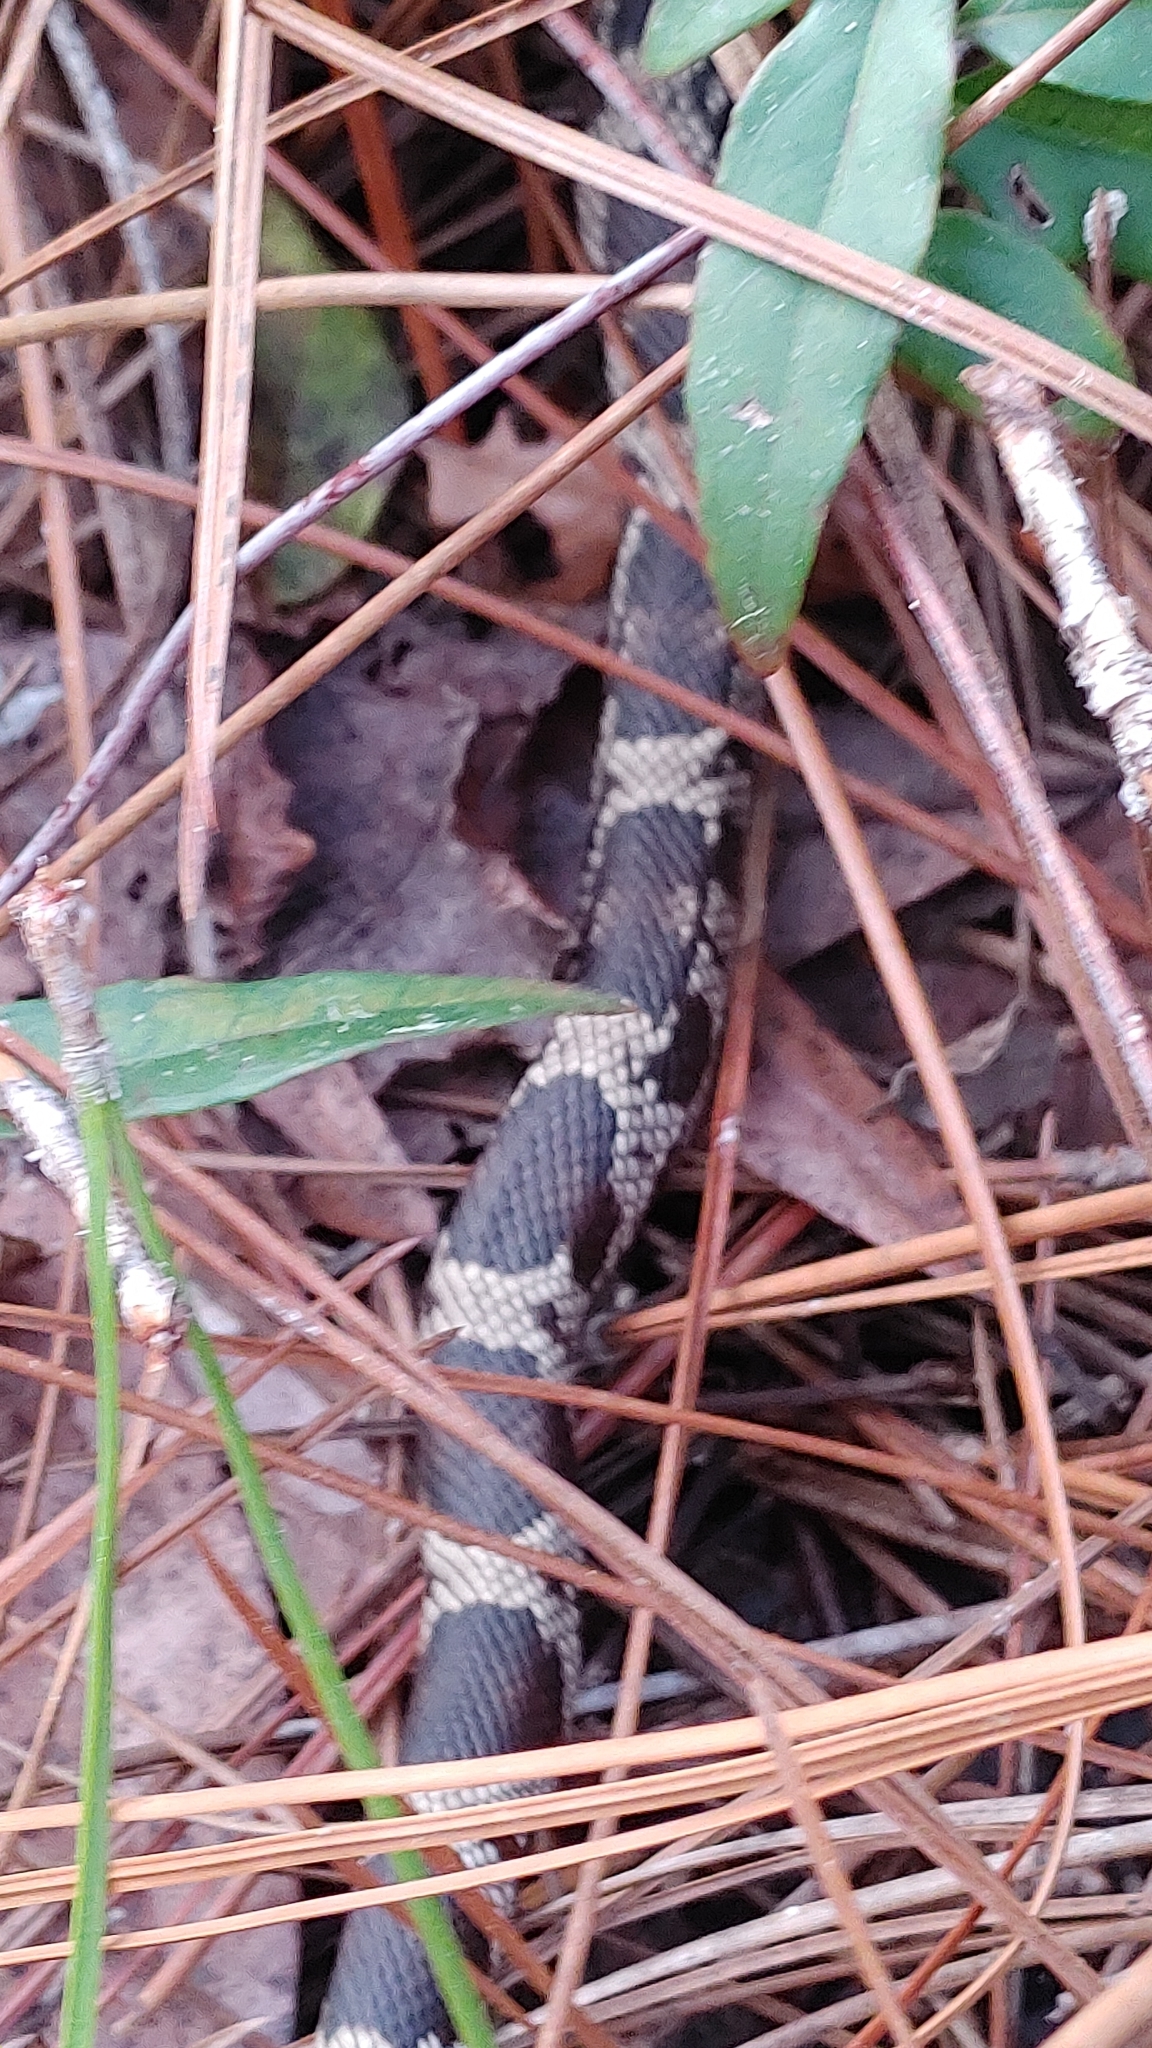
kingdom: Animalia
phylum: Chordata
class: Squamata
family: Colubridae
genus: Pituophis
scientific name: Pituophis melanoleucus
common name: Pine snake
